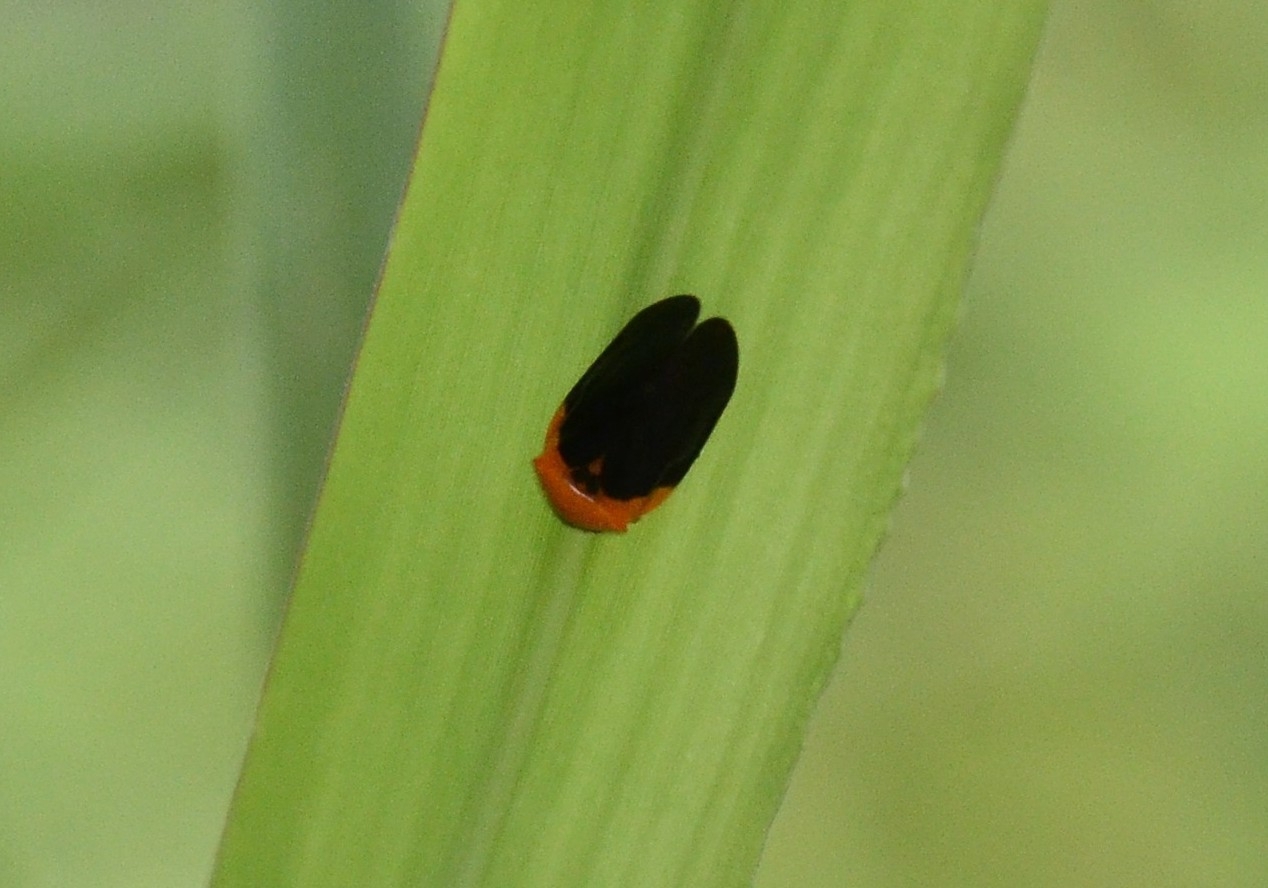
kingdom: Animalia
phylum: Arthropoda
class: Insecta
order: Hemiptera
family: Cercopidae
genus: Phymatostetha
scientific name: Phymatostetha deschampsi
